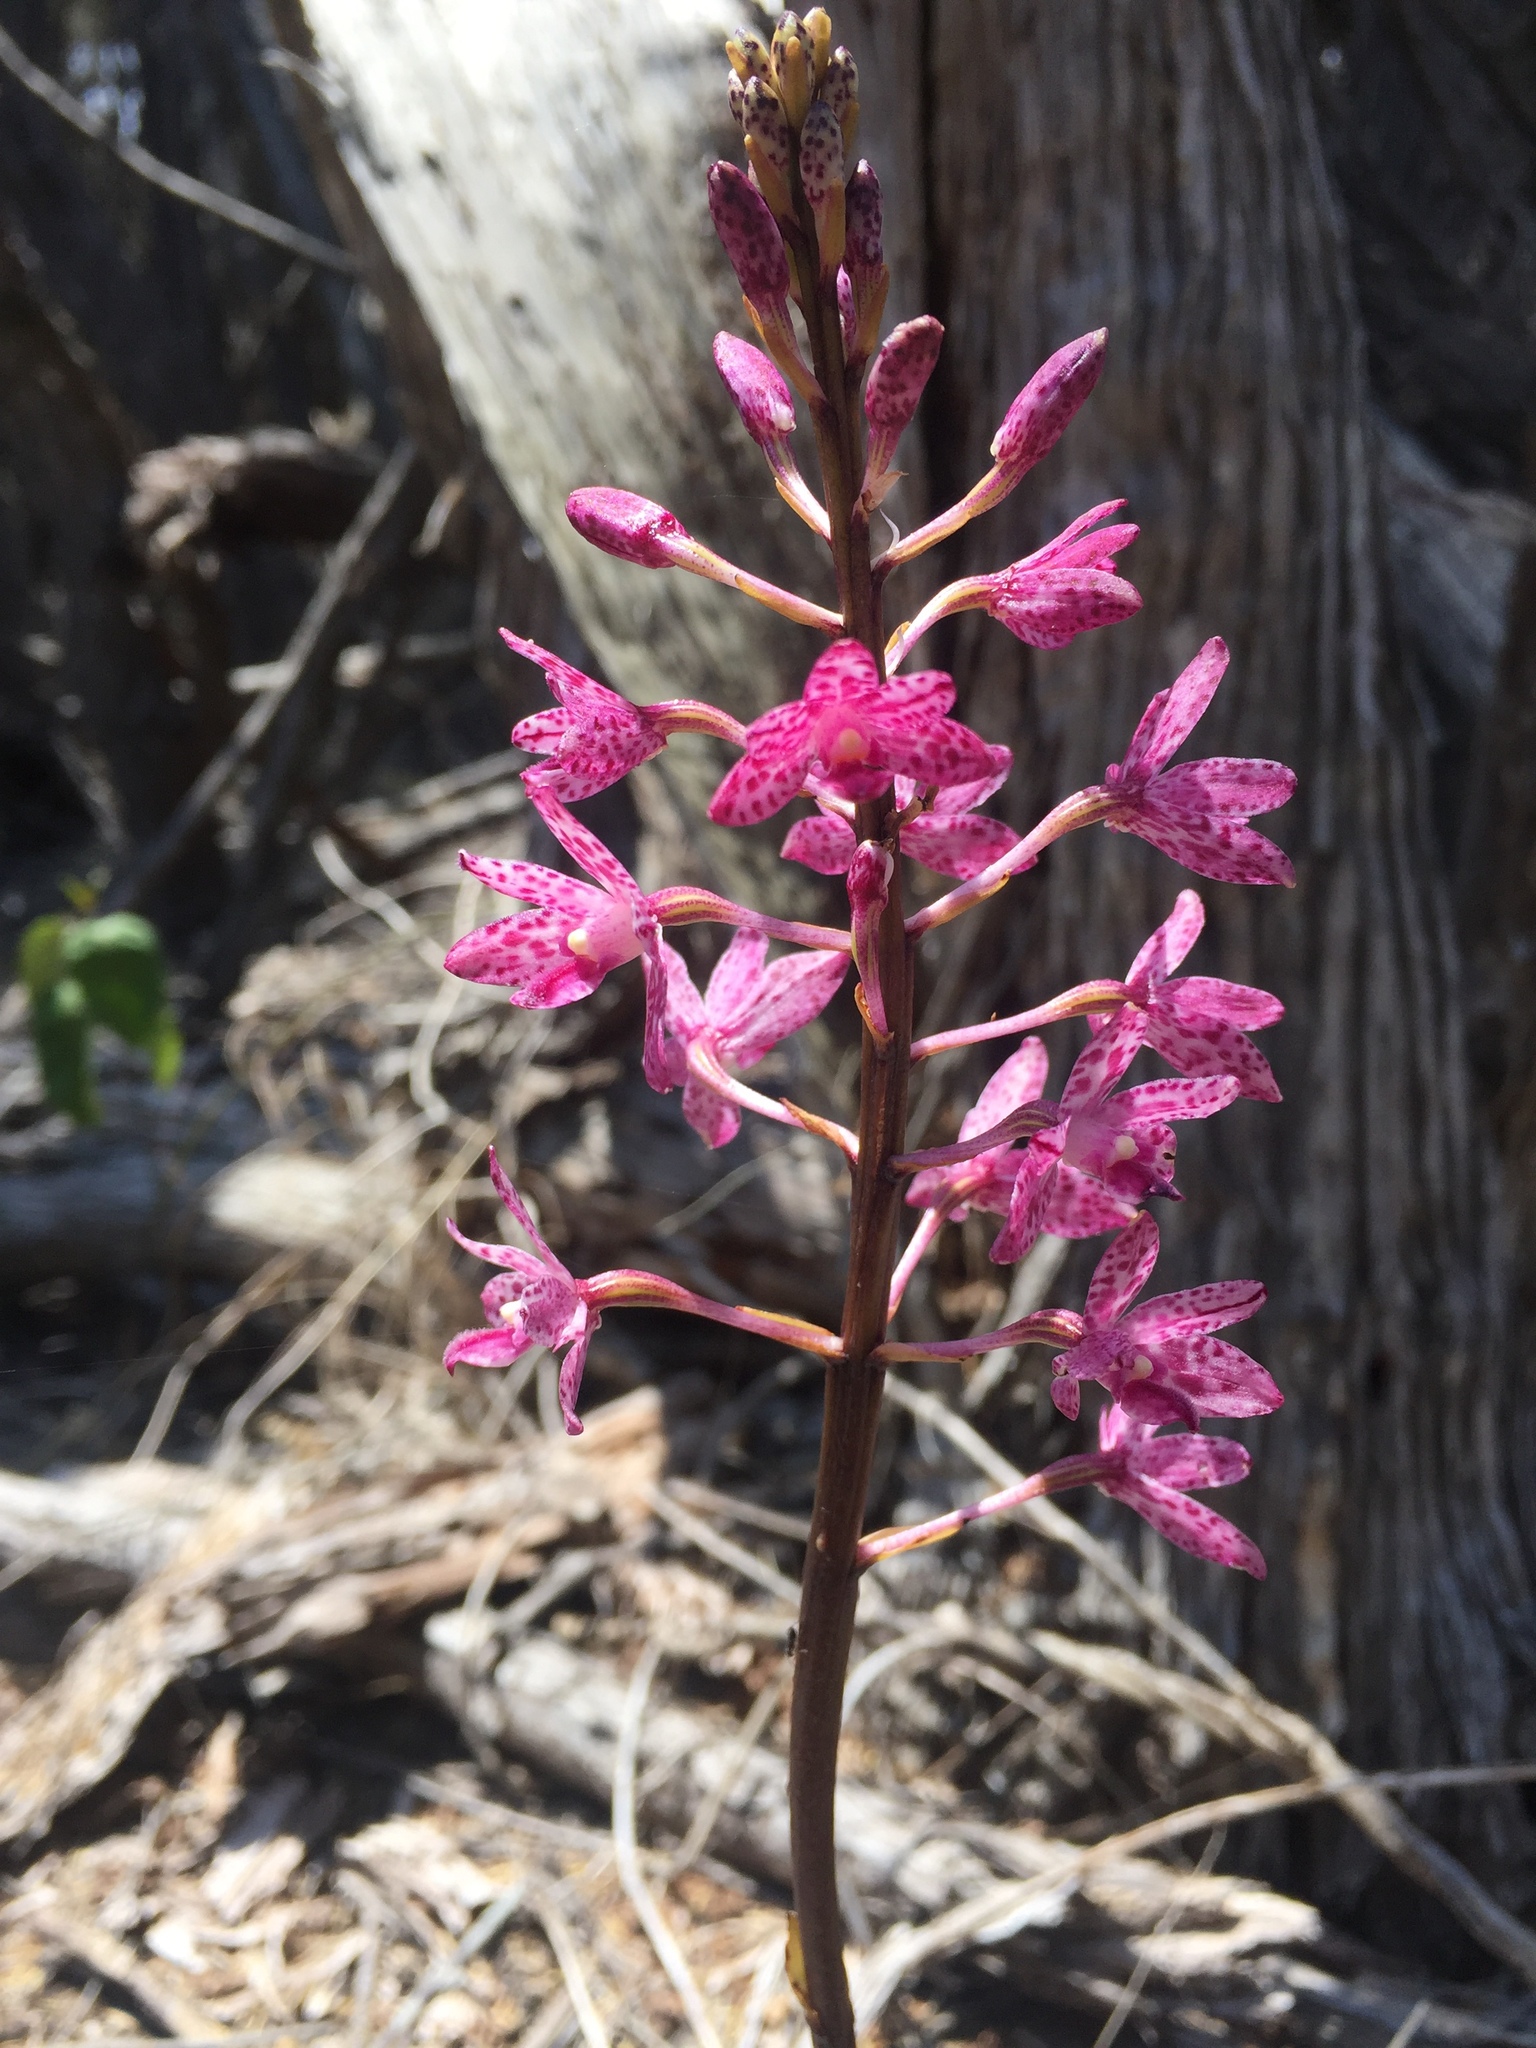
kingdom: Plantae
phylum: Tracheophyta
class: Liliopsida
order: Asparagales
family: Orchidaceae
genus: Dipodium
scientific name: Dipodium squamatum
